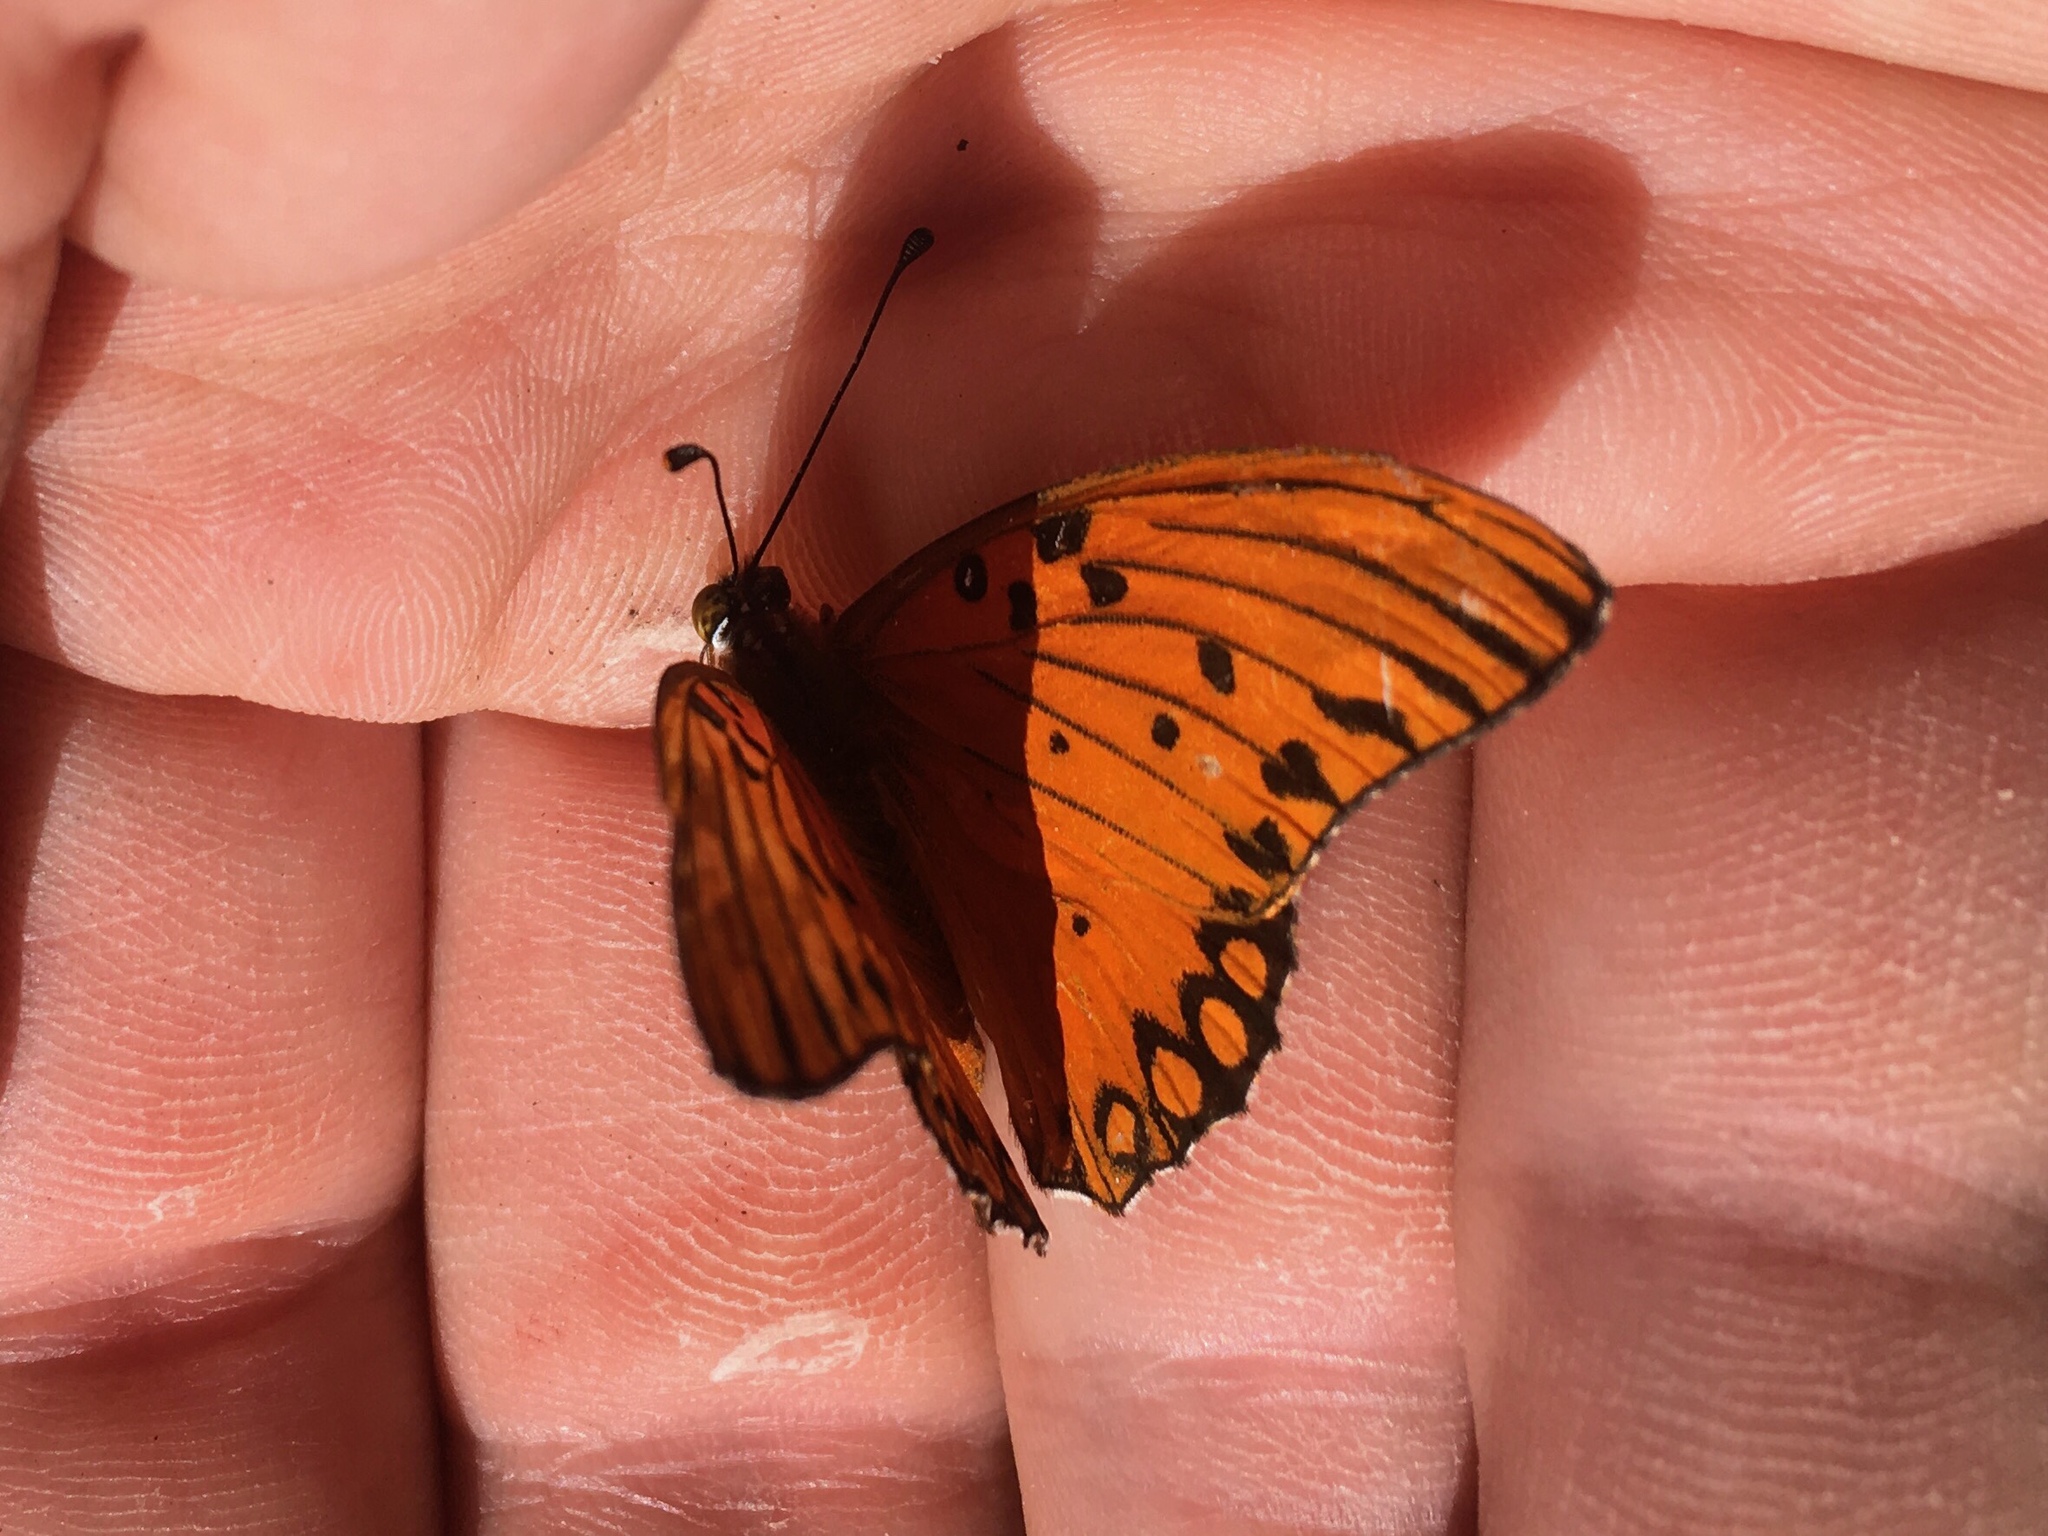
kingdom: Animalia
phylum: Arthropoda
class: Insecta
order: Lepidoptera
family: Nymphalidae
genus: Dione
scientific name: Dione vanillae
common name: Gulf fritillary
